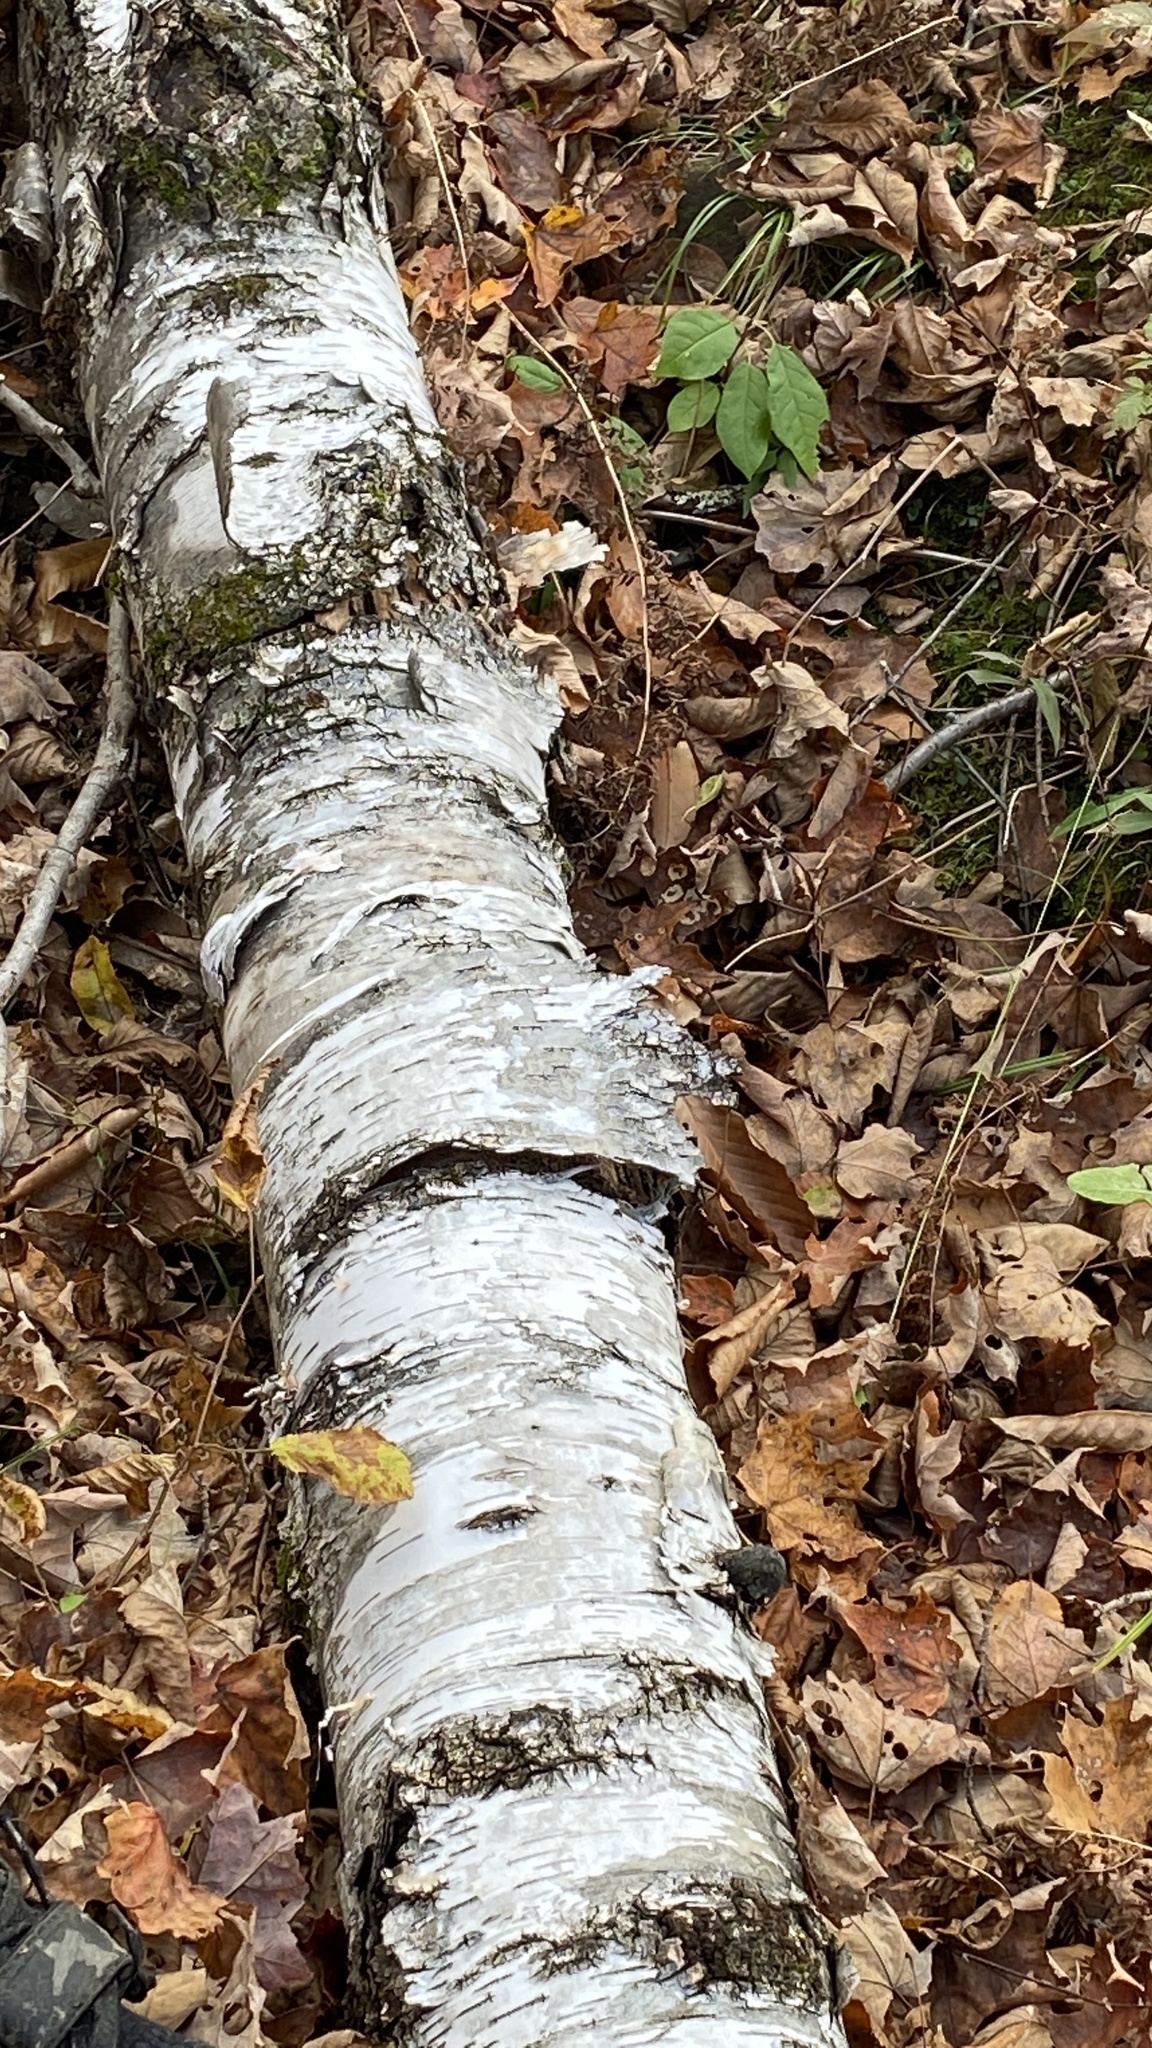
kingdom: Plantae
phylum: Tracheophyta
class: Magnoliopsida
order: Fagales
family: Betulaceae
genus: Betula
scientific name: Betula papyrifera
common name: Paper birch
